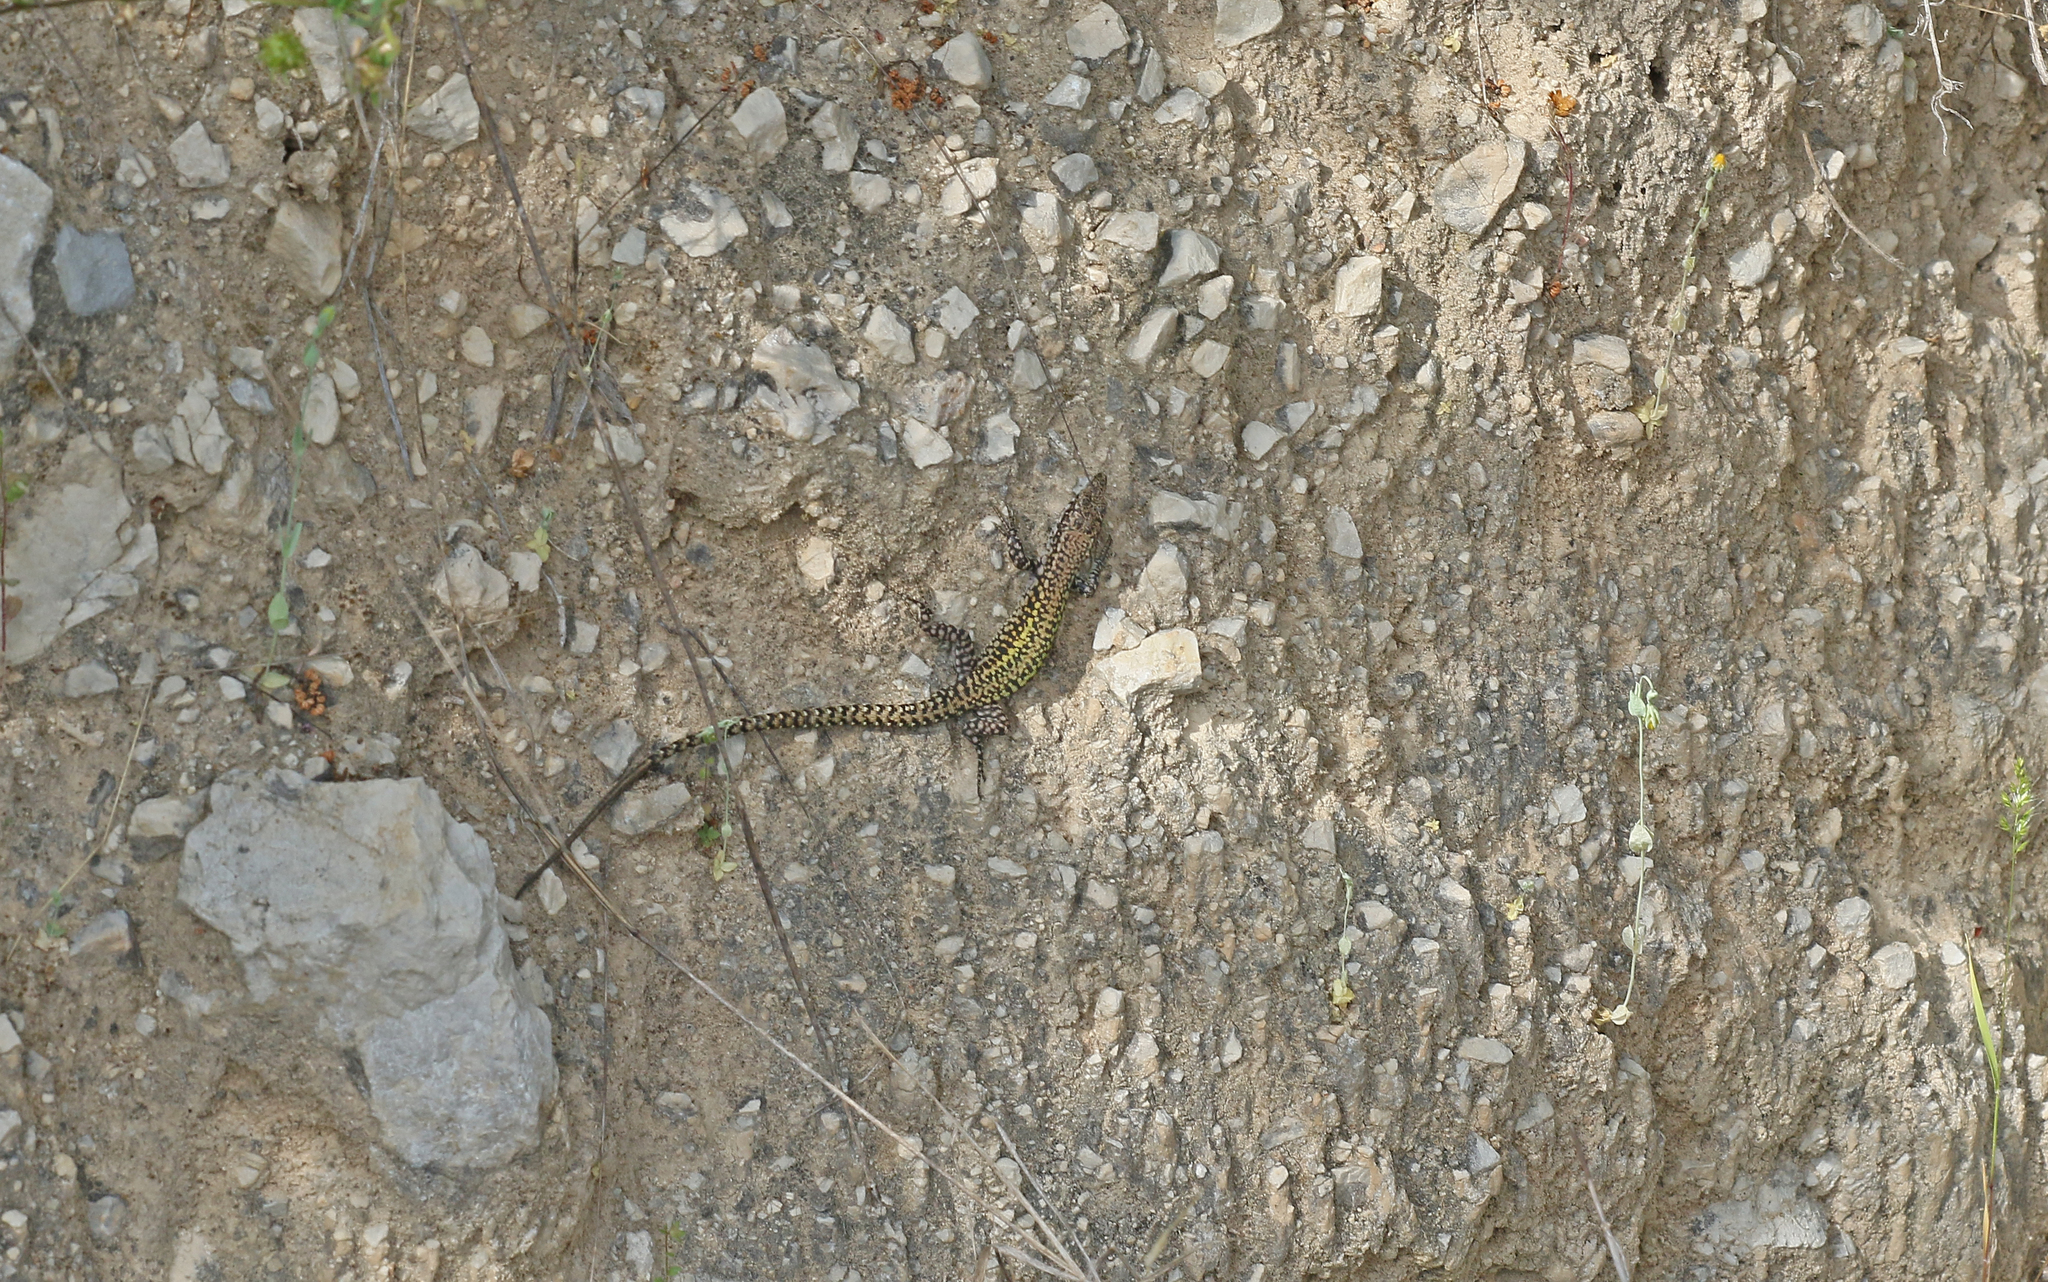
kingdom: Animalia
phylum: Chordata
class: Squamata
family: Lacertidae
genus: Podarcis
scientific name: Podarcis vaucheri
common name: Vaucher's wall lizard
